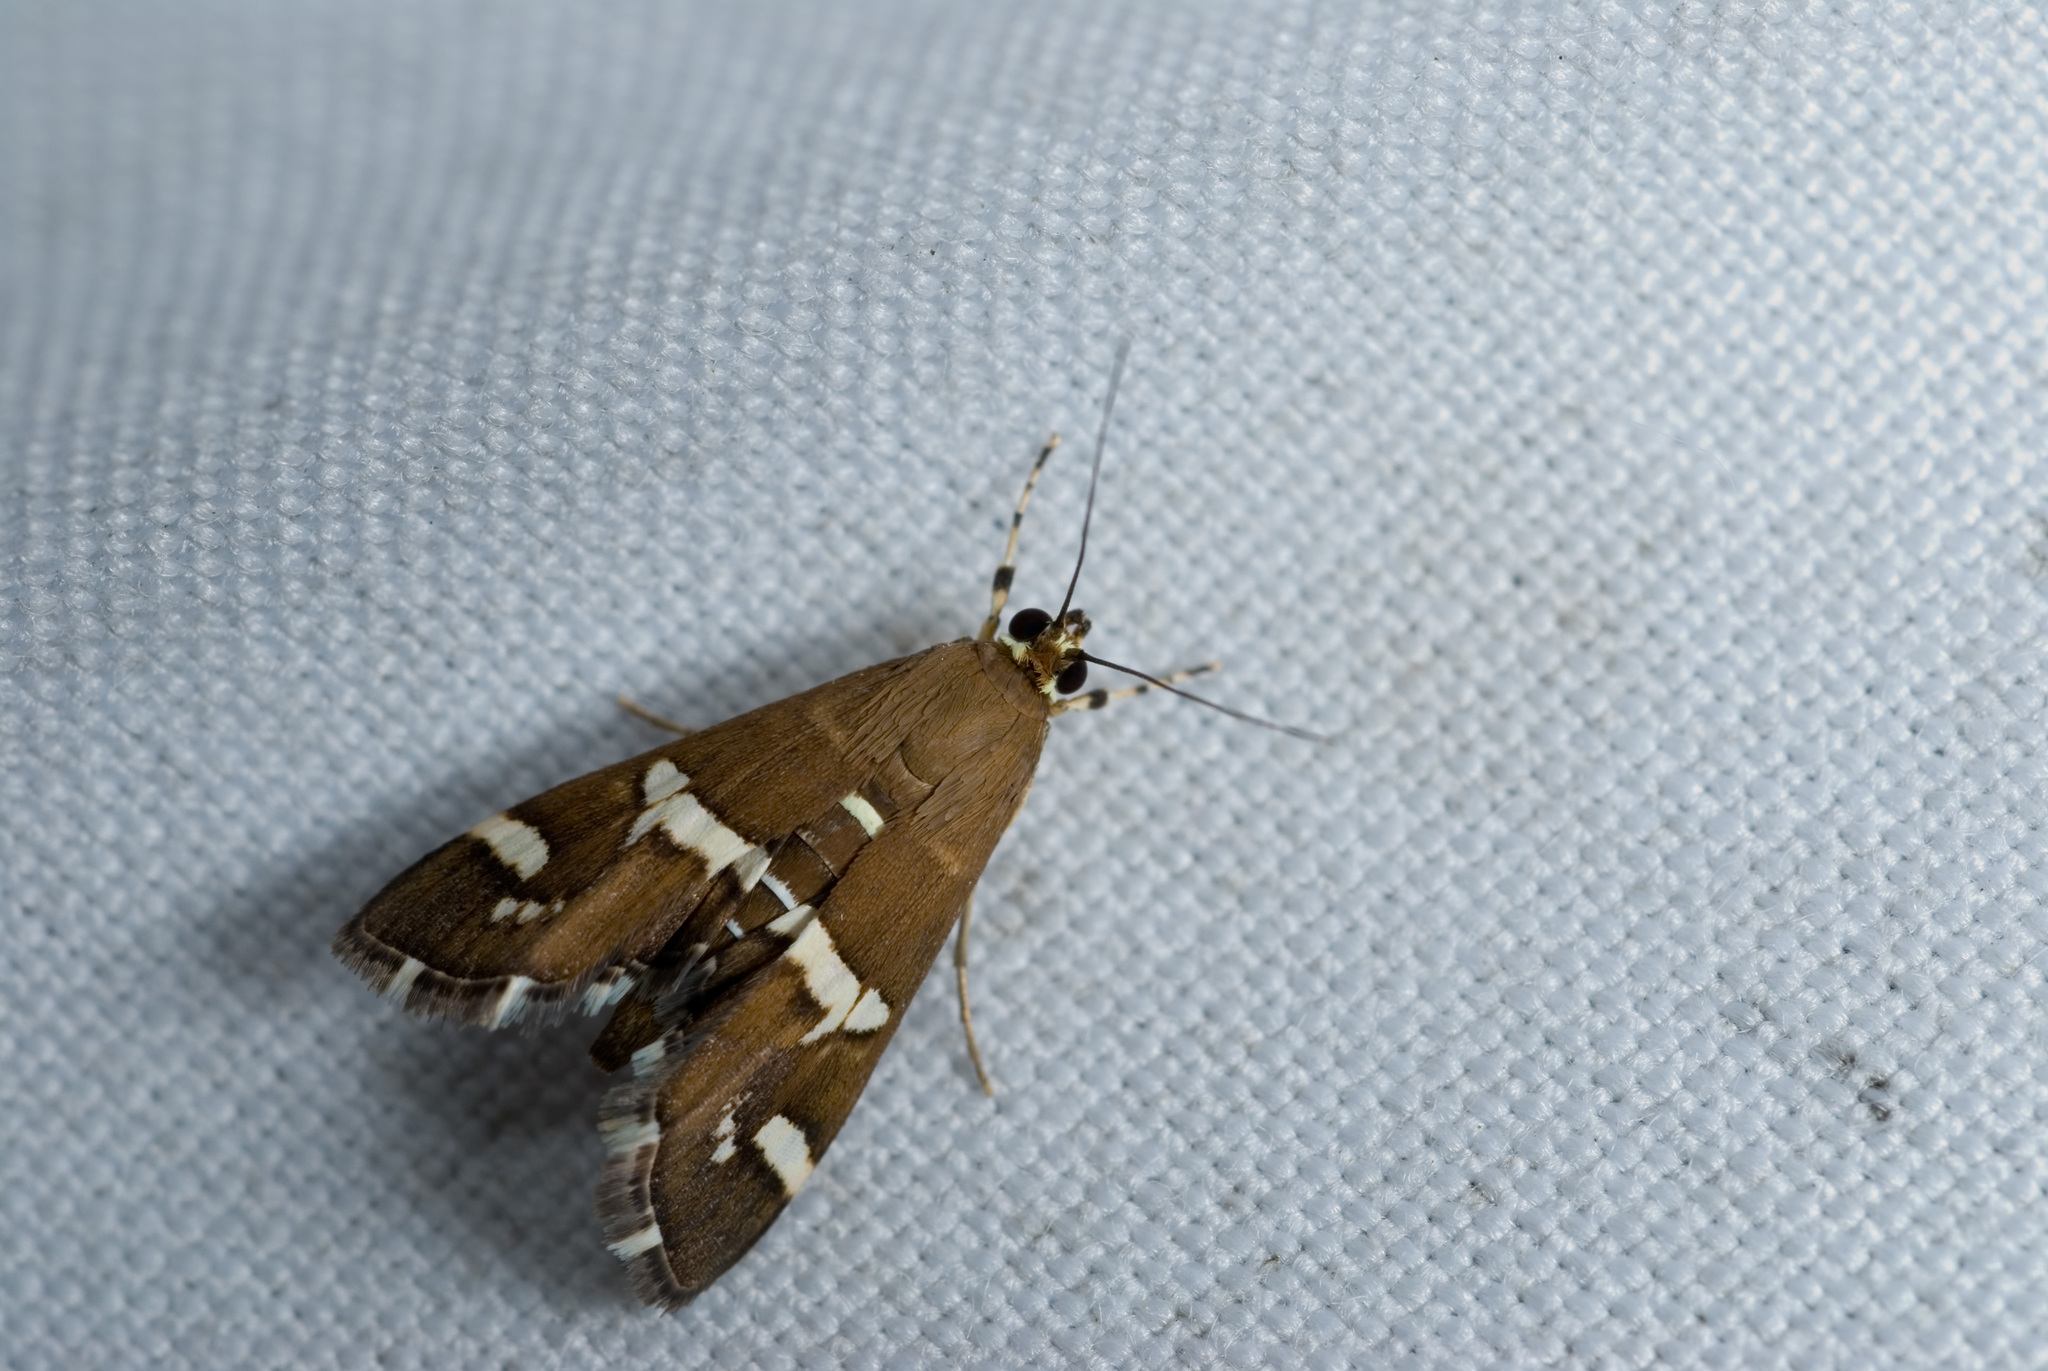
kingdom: Animalia
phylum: Arthropoda
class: Insecta
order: Lepidoptera
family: Crambidae
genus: Spoladea
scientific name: Spoladea recurvalis
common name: Beet webworm moth
